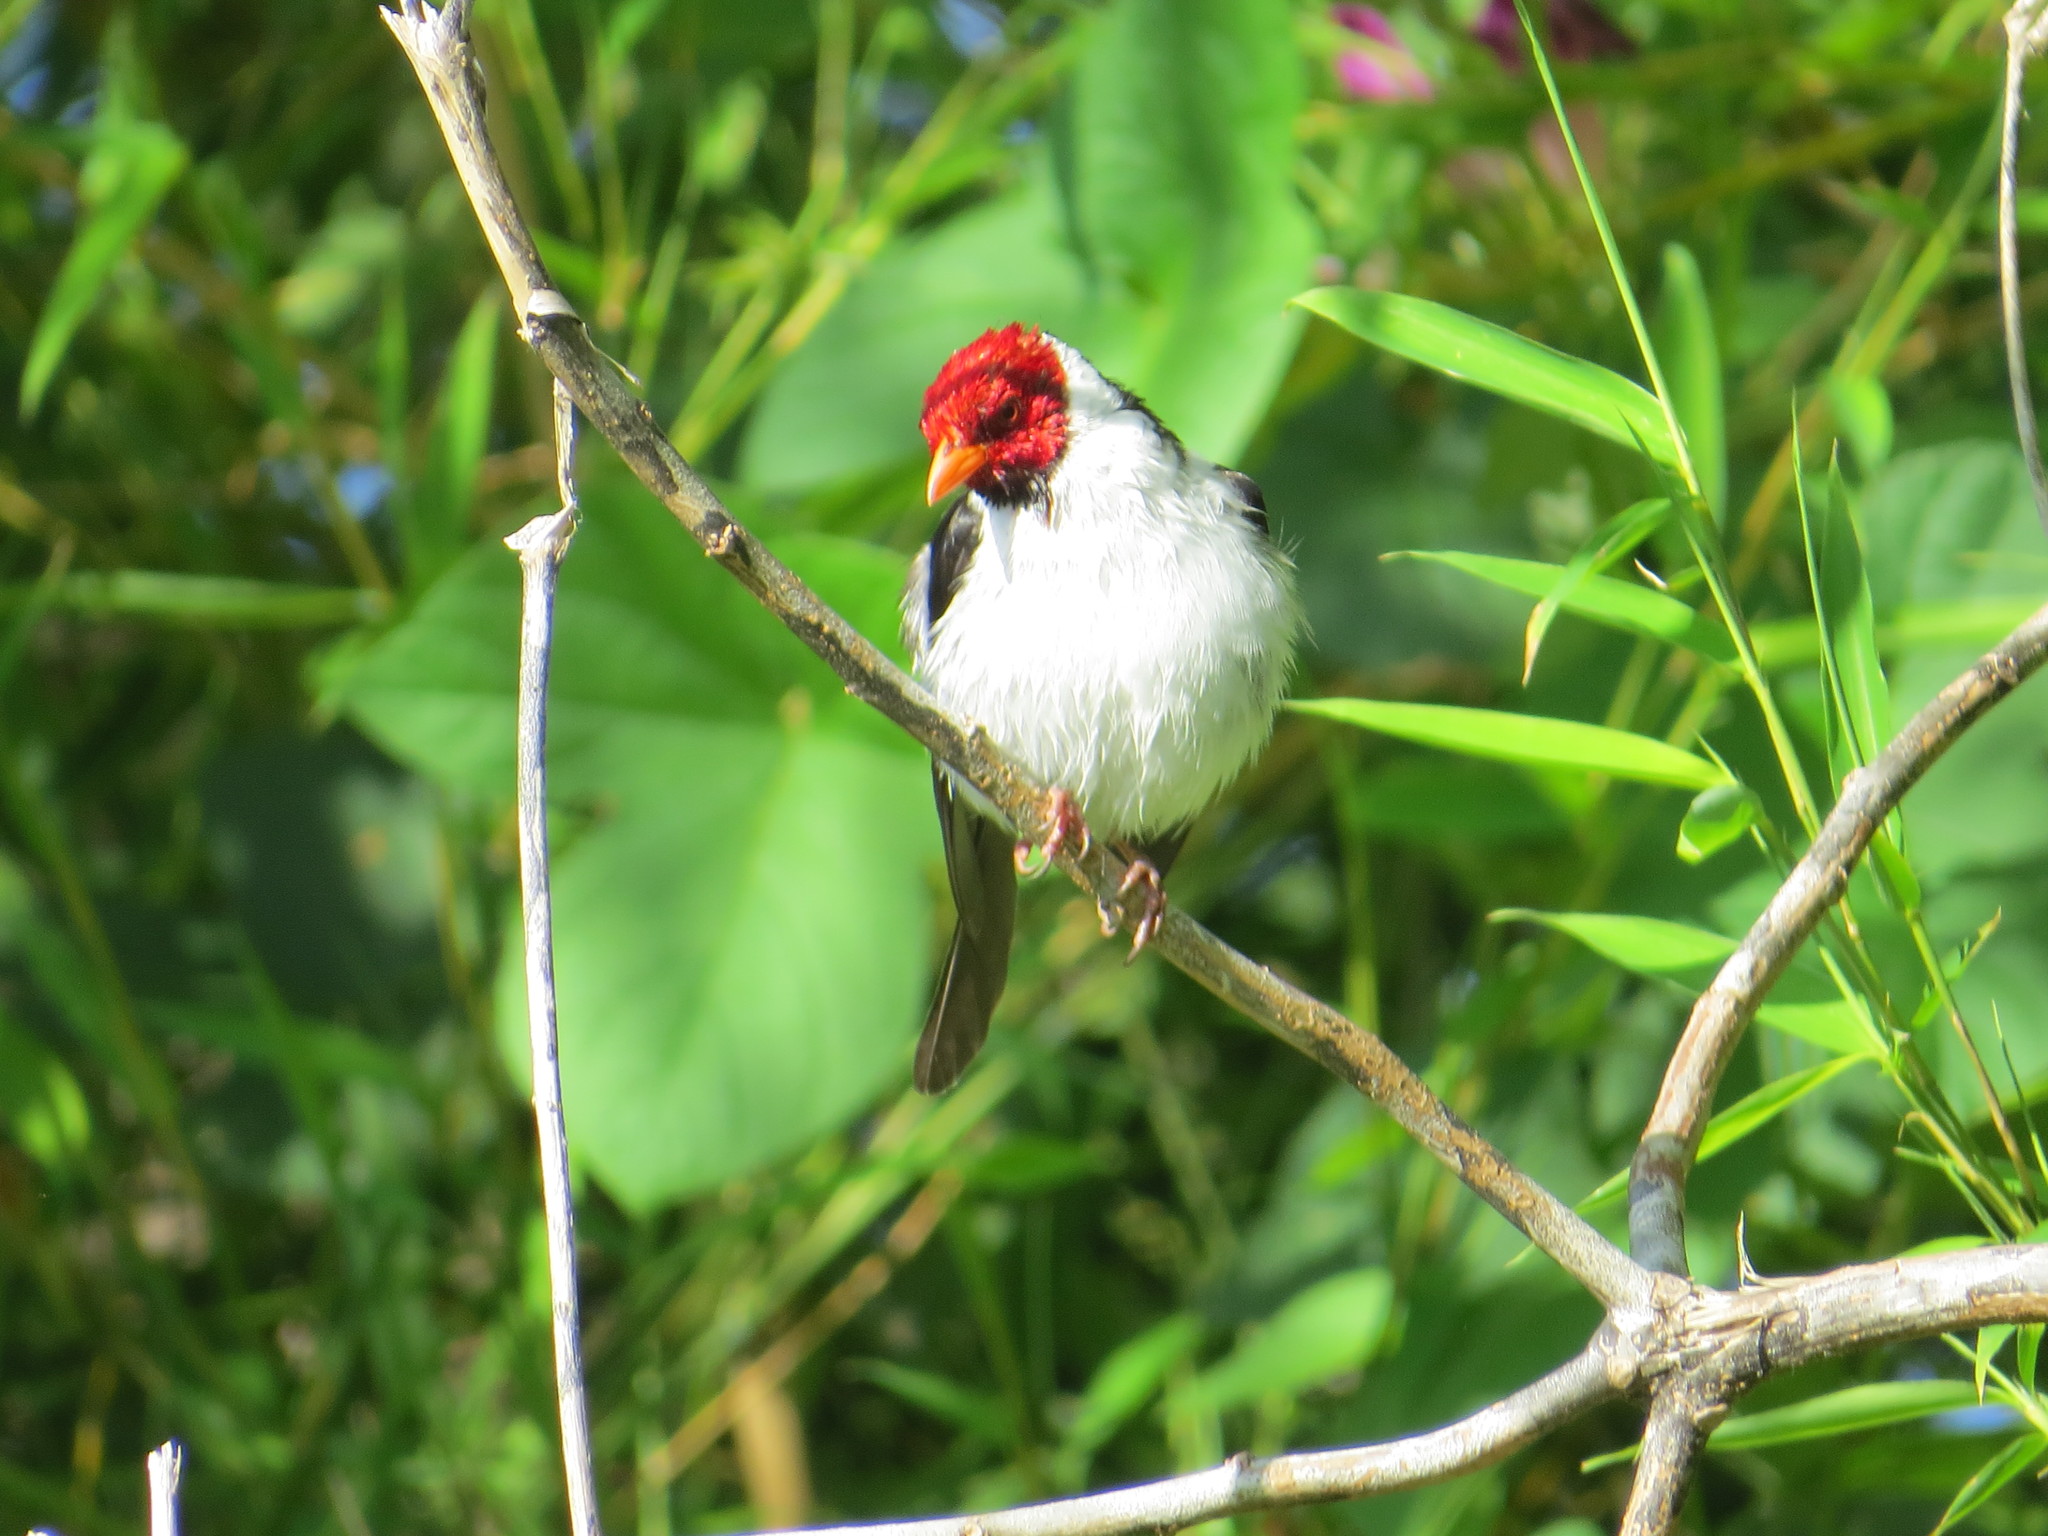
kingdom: Animalia
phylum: Chordata
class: Aves
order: Passeriformes
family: Thraupidae
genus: Paroaria
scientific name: Paroaria capitata
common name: Yellow-billed cardinal
